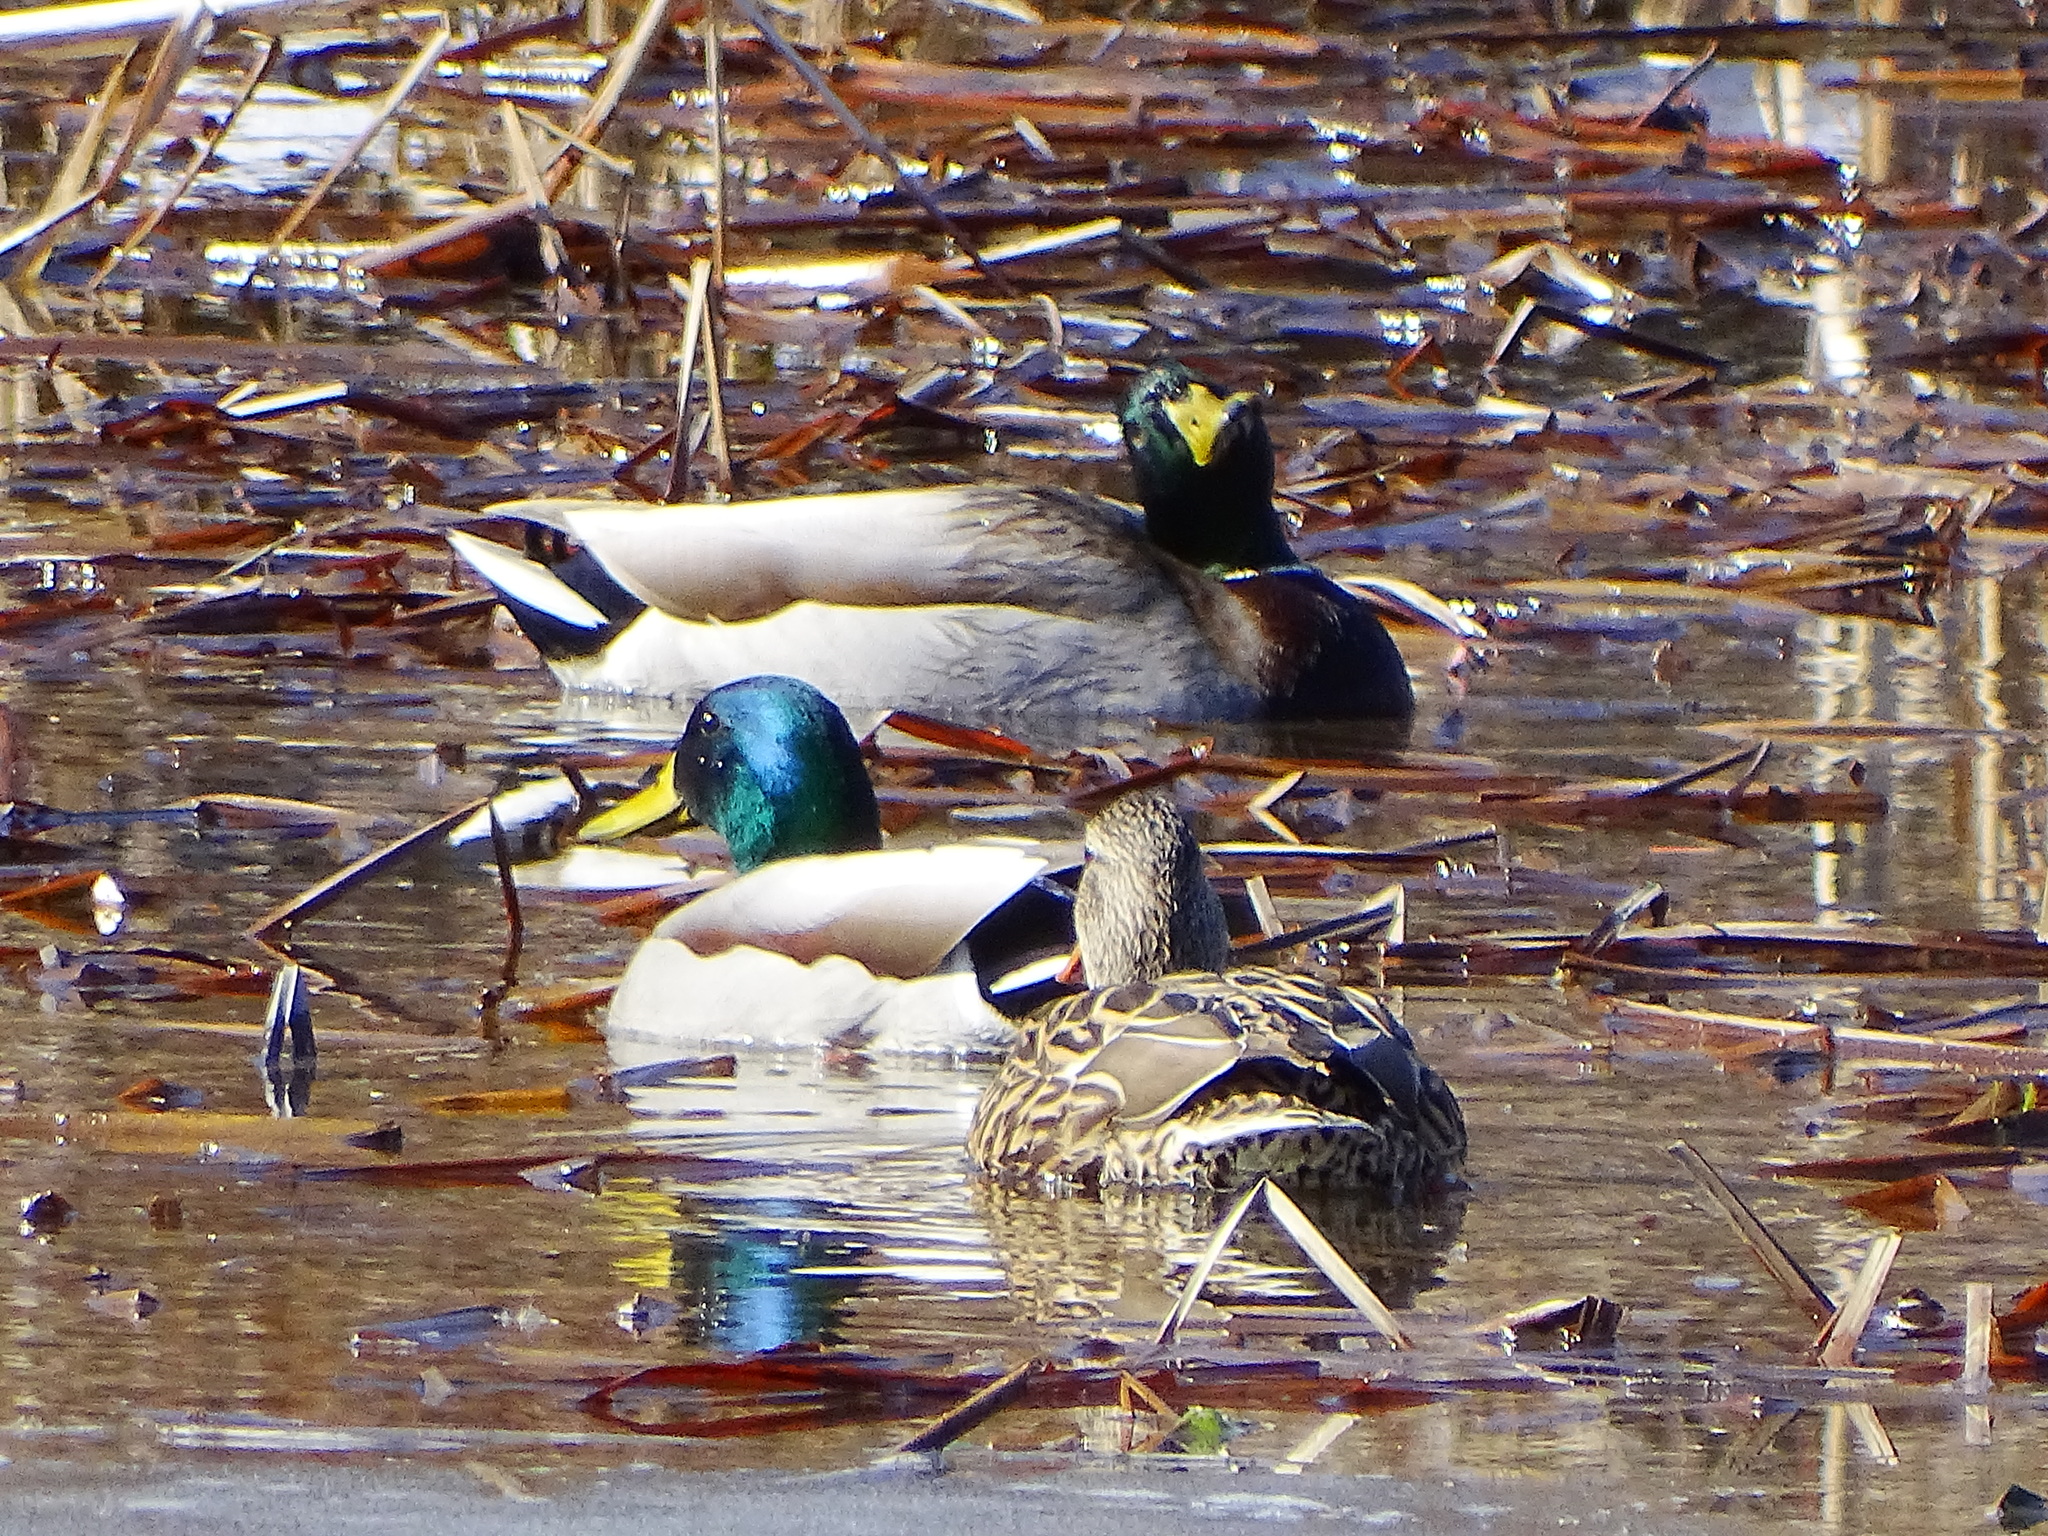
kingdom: Animalia
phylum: Chordata
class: Aves
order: Anseriformes
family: Anatidae
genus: Anas
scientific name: Anas platyrhynchos
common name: Mallard
